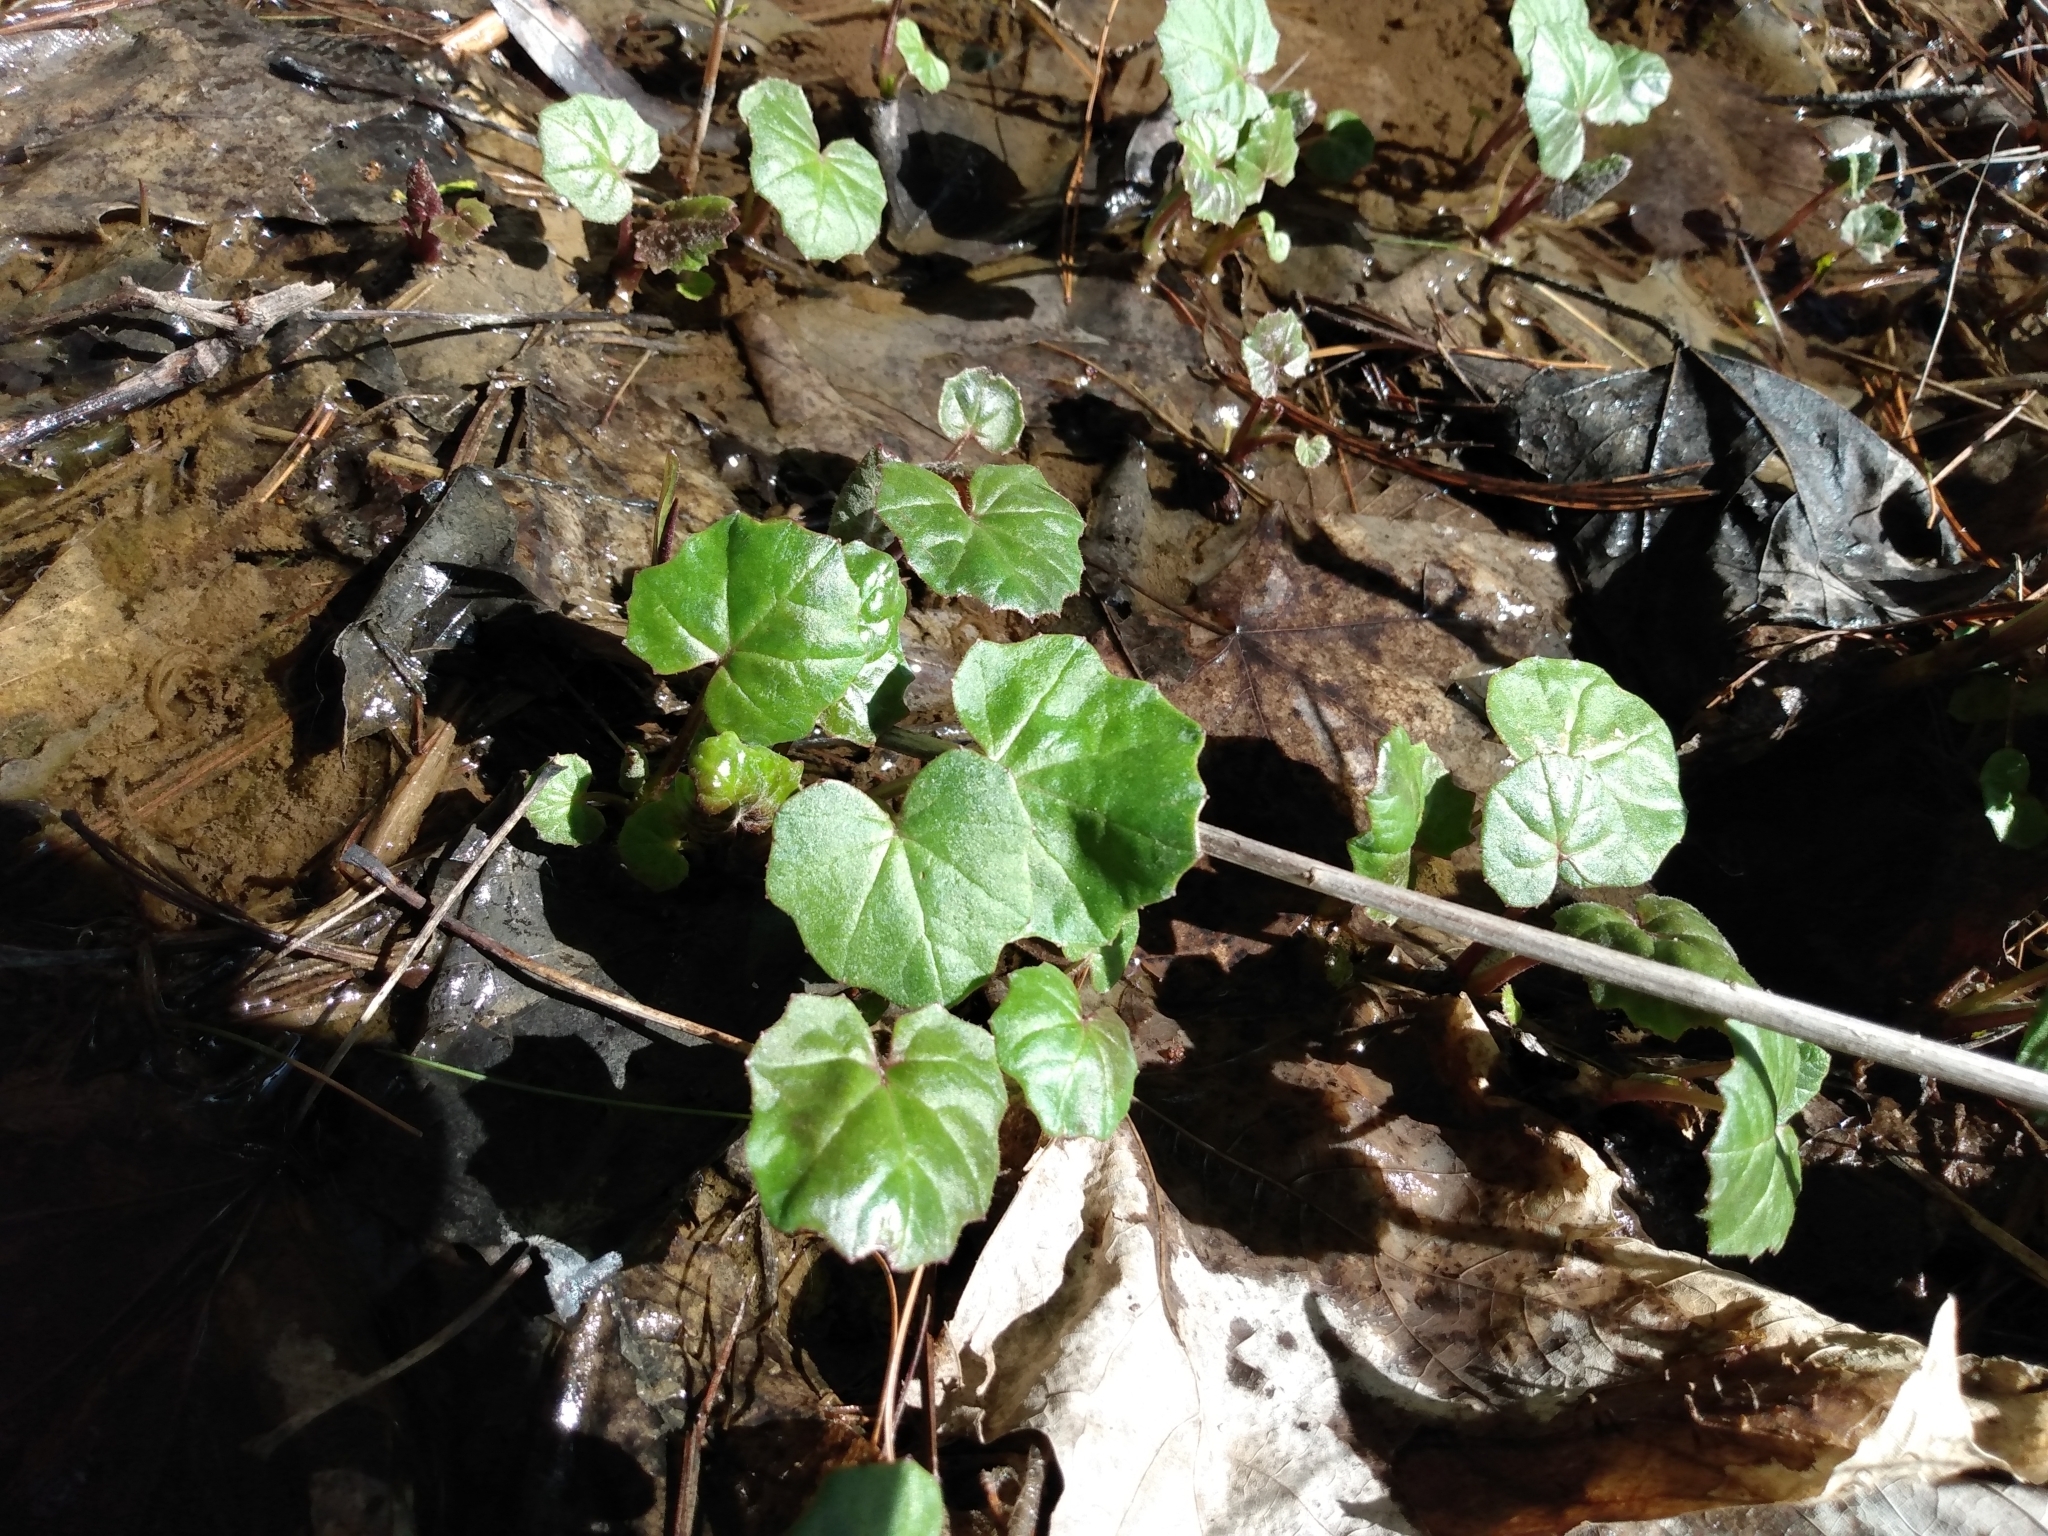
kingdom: Plantae
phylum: Tracheophyta
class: Magnoliopsida
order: Asterales
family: Asteraceae
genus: Tussilago
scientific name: Tussilago farfara
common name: Coltsfoot
